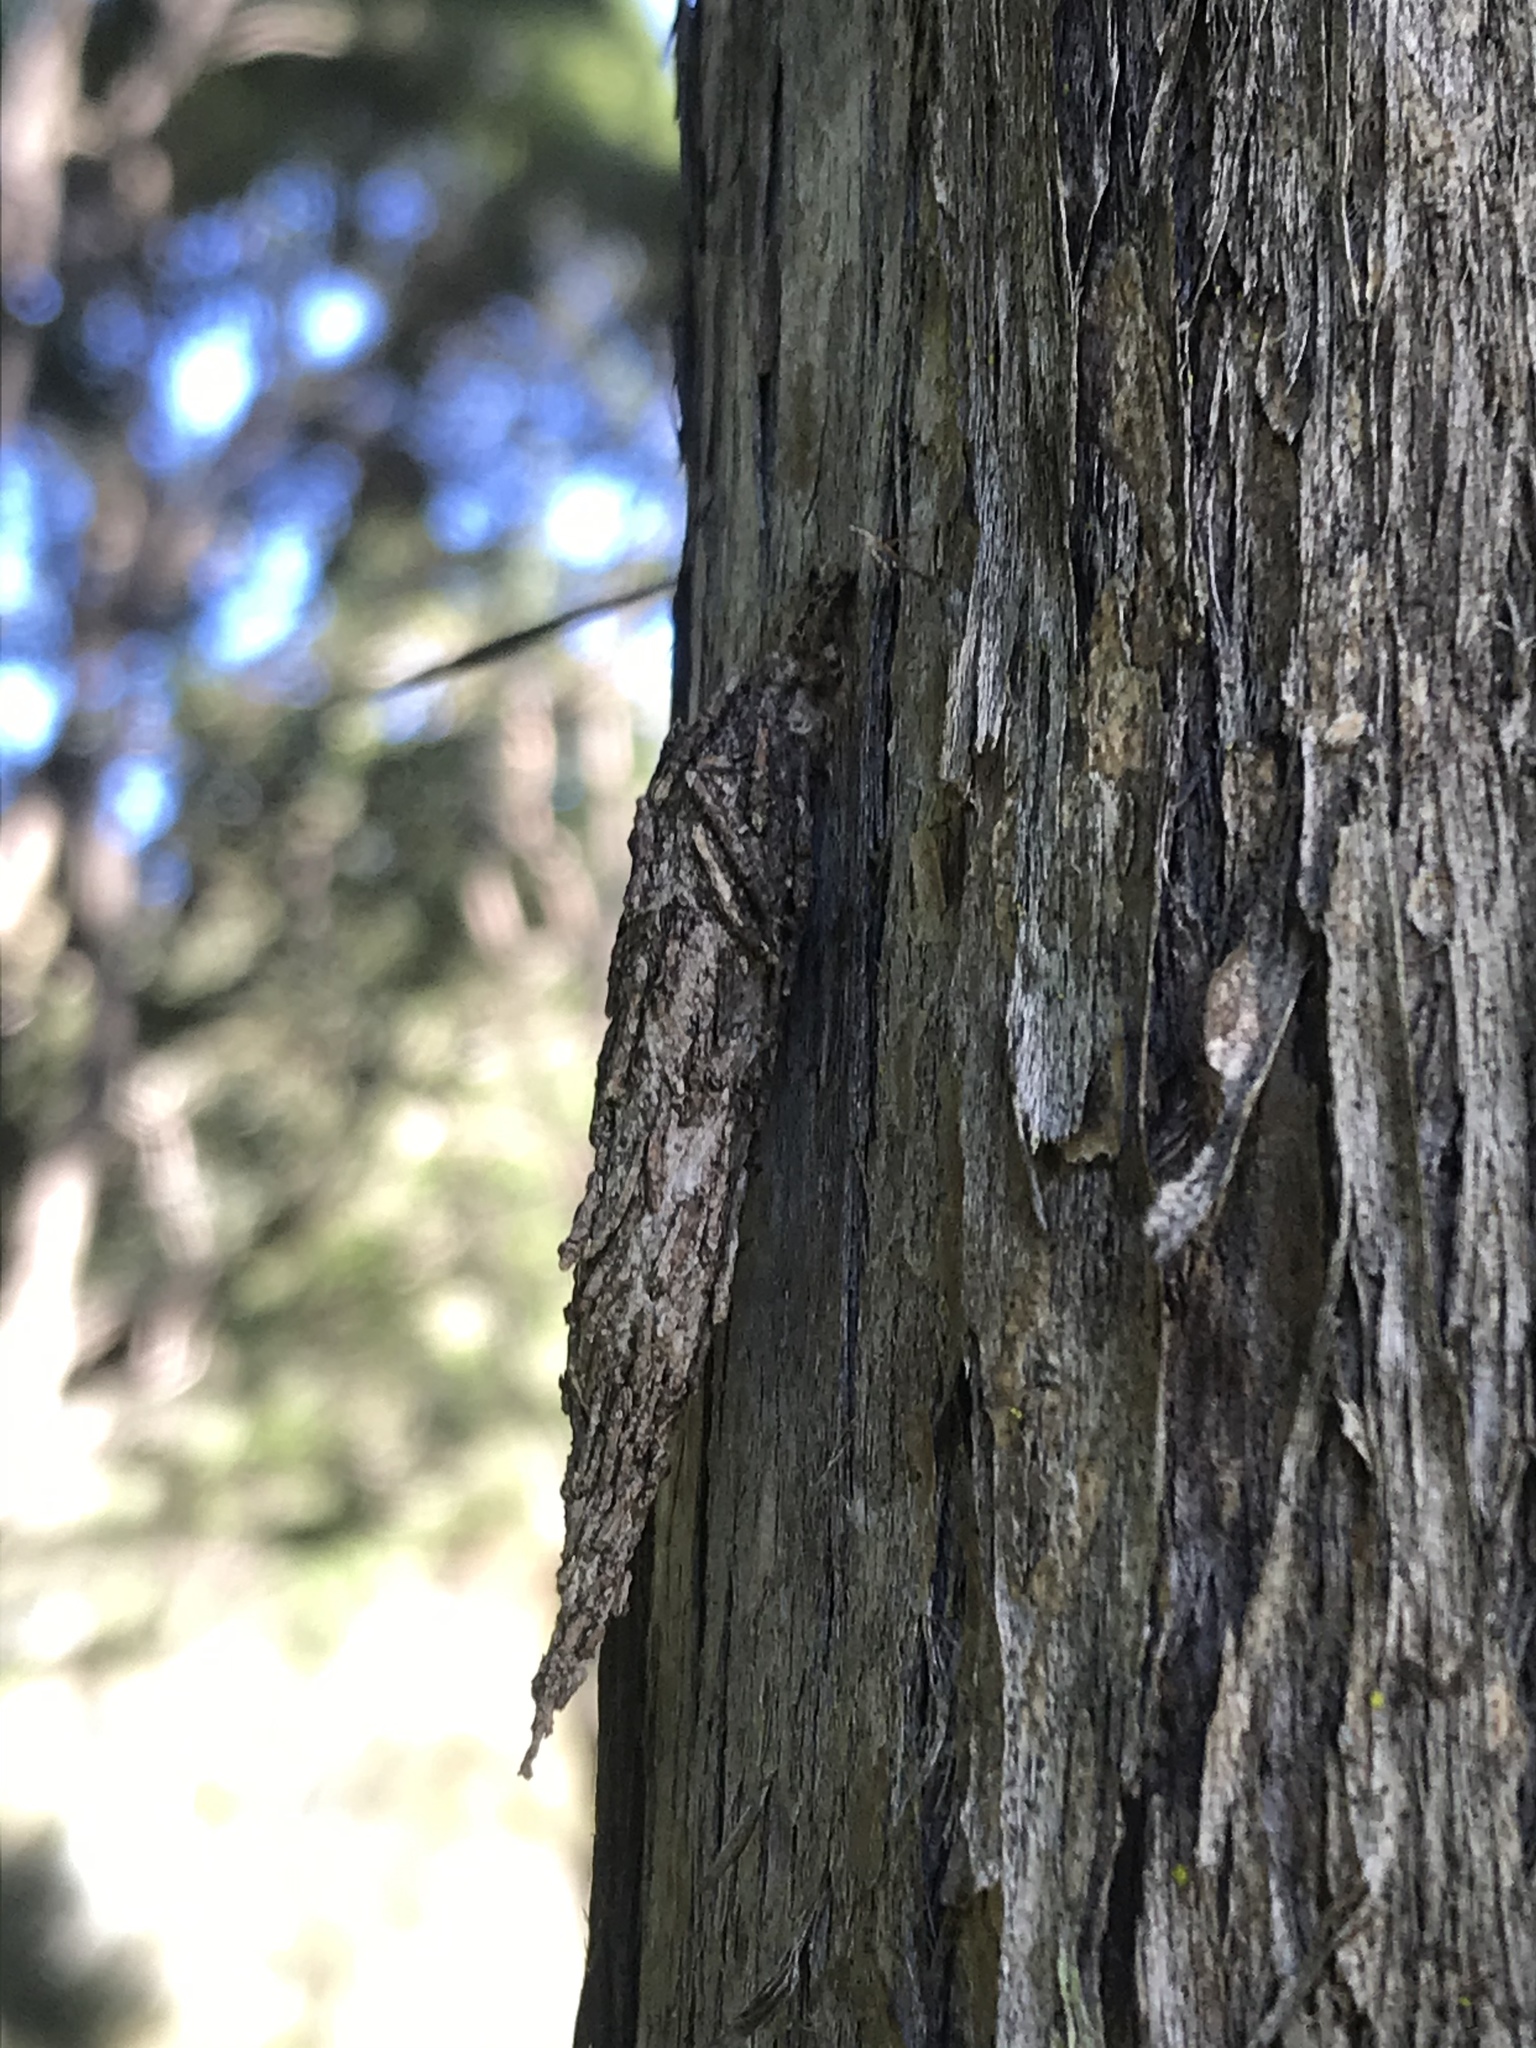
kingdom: Animalia
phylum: Arthropoda
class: Insecta
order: Lepidoptera
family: Psychidae
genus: Liothula
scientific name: Liothula omnivora
